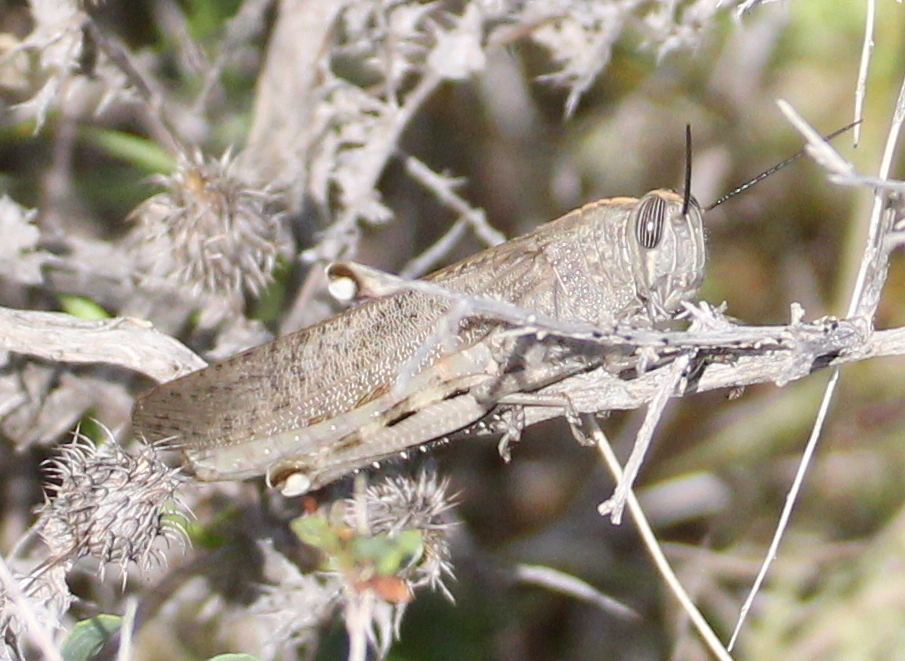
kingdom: Animalia
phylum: Arthropoda
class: Insecta
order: Orthoptera
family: Acrididae
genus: Anacridium
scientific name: Anacridium aegyptium
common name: Egyptian grasshopper
